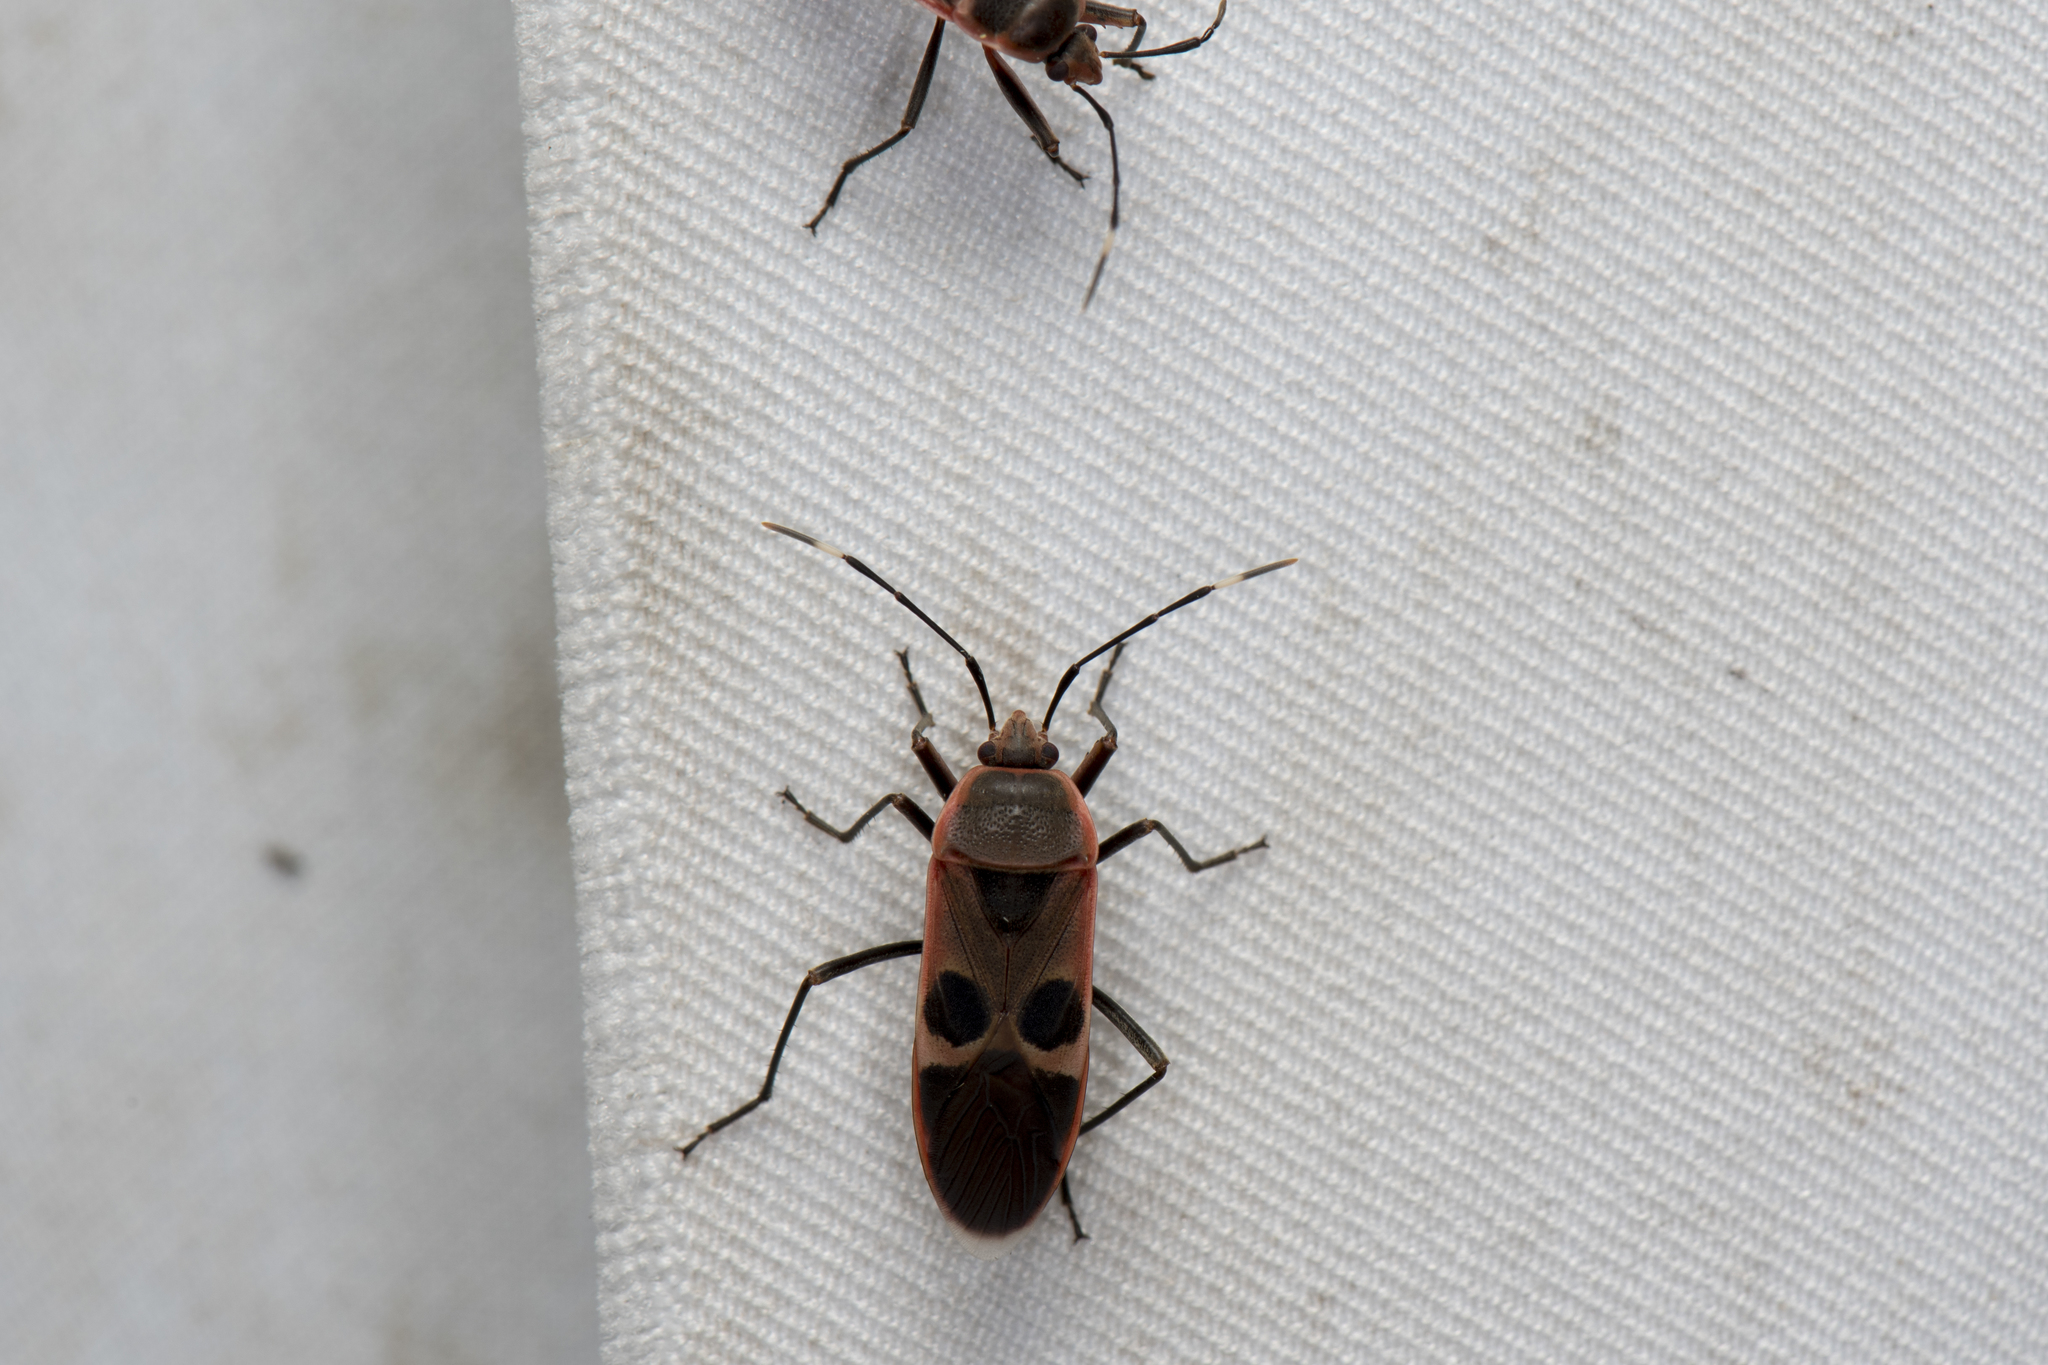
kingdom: Animalia
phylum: Arthropoda
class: Insecta
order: Hemiptera
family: Largidae
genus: Physopelta
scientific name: Physopelta gutta
